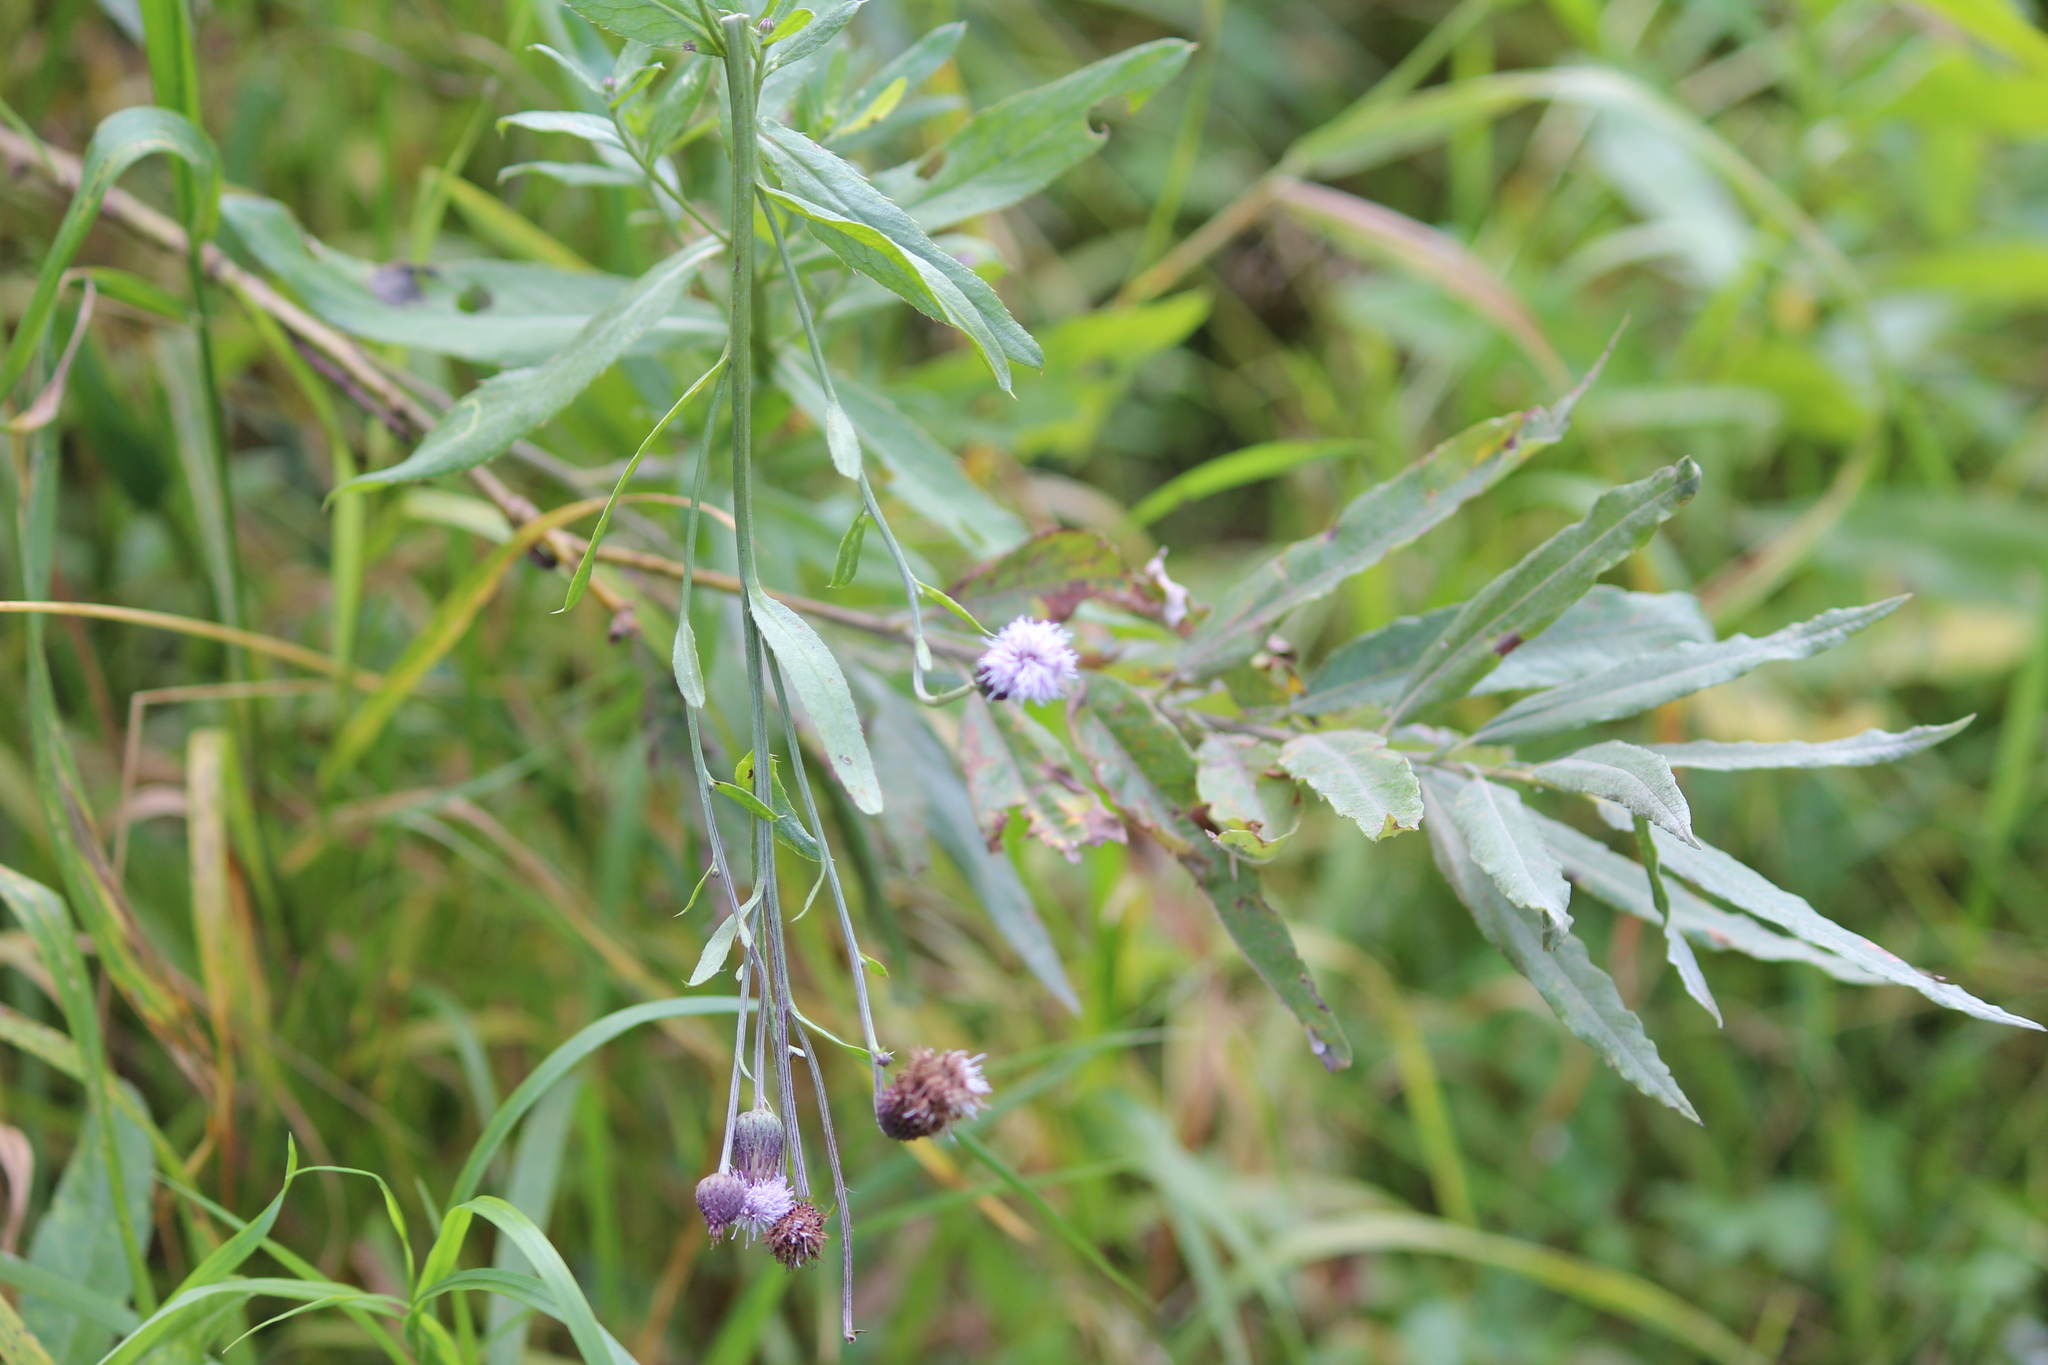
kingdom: Plantae
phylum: Tracheophyta
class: Magnoliopsida
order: Asterales
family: Asteraceae
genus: Cirsium
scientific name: Cirsium arvense
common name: Creeping thistle
